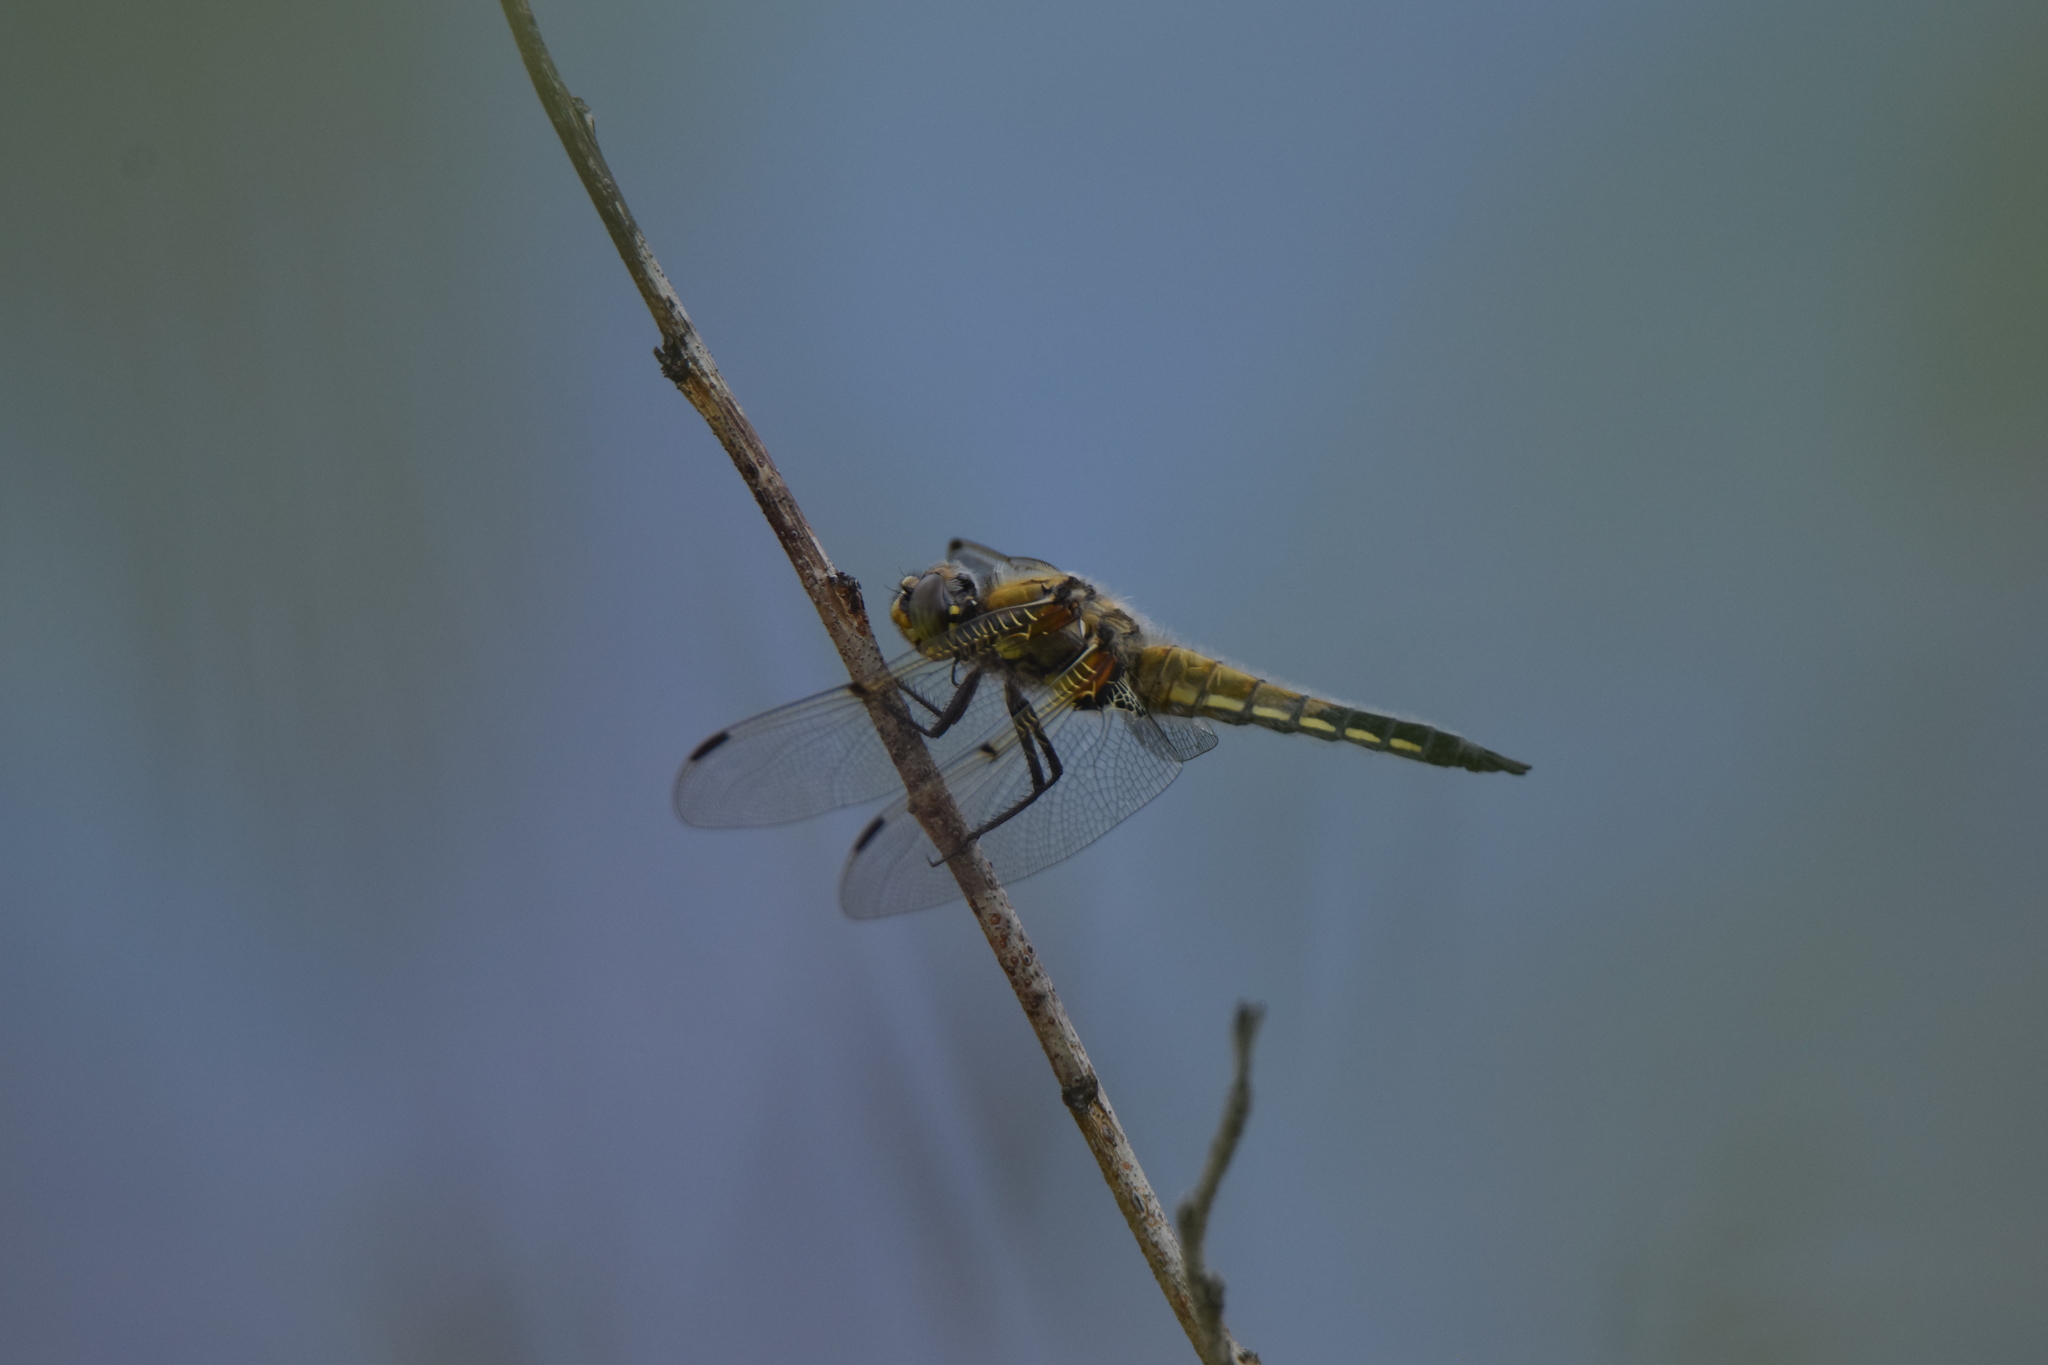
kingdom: Animalia
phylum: Arthropoda
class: Insecta
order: Odonata
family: Libellulidae
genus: Libellula
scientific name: Libellula quadrimaculata
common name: Four-spotted chaser
